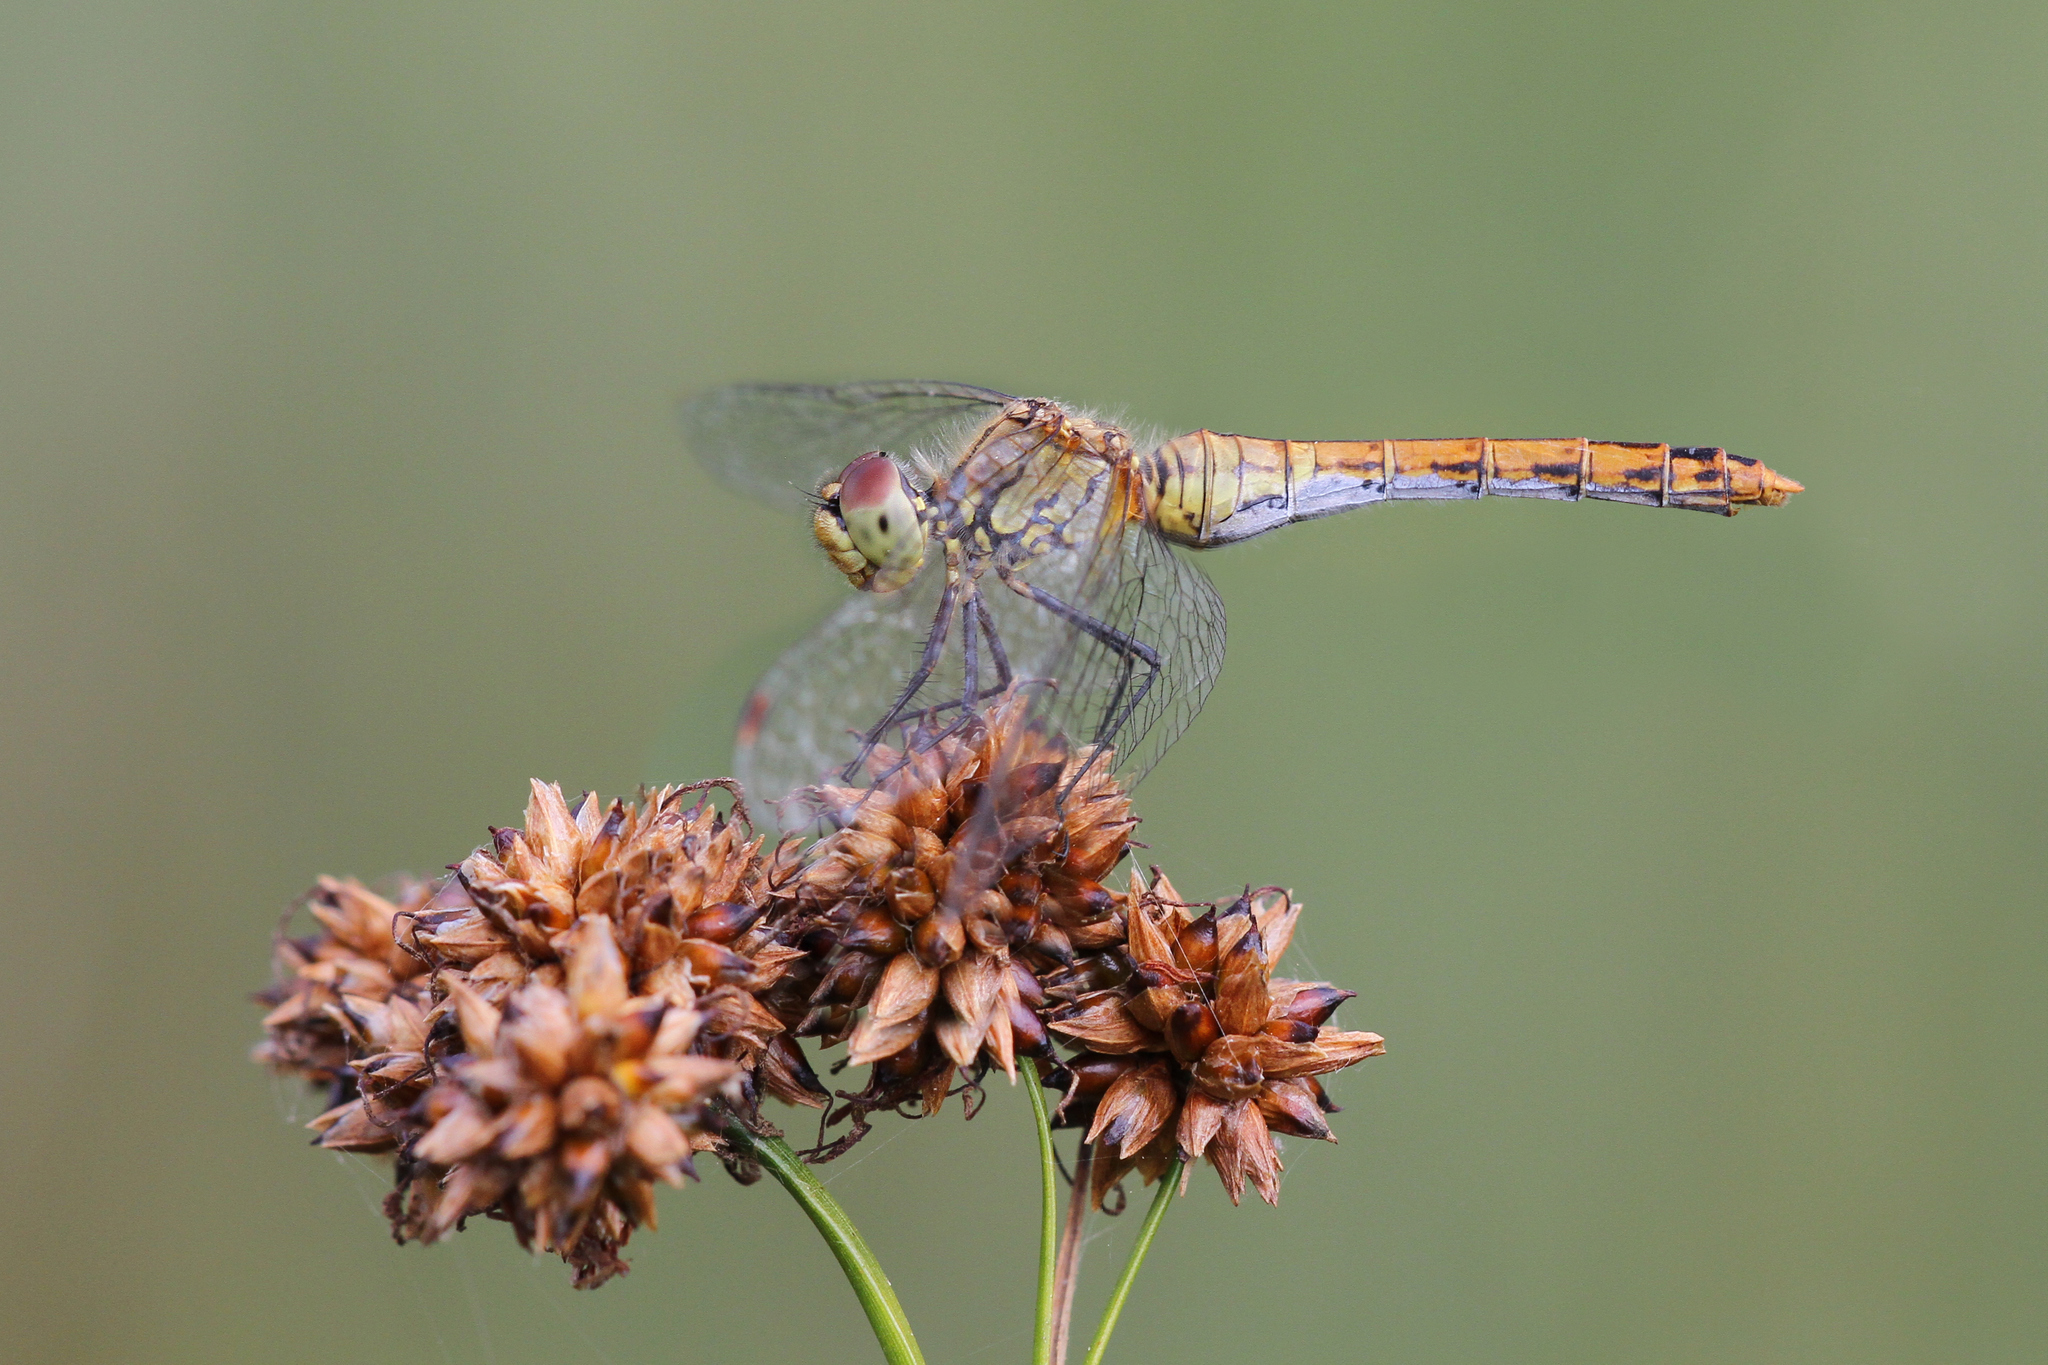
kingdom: Animalia
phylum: Arthropoda
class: Insecta
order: Odonata
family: Libellulidae
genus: Sympetrum
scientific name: Sympetrum sanguineum
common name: Ruddy darter
